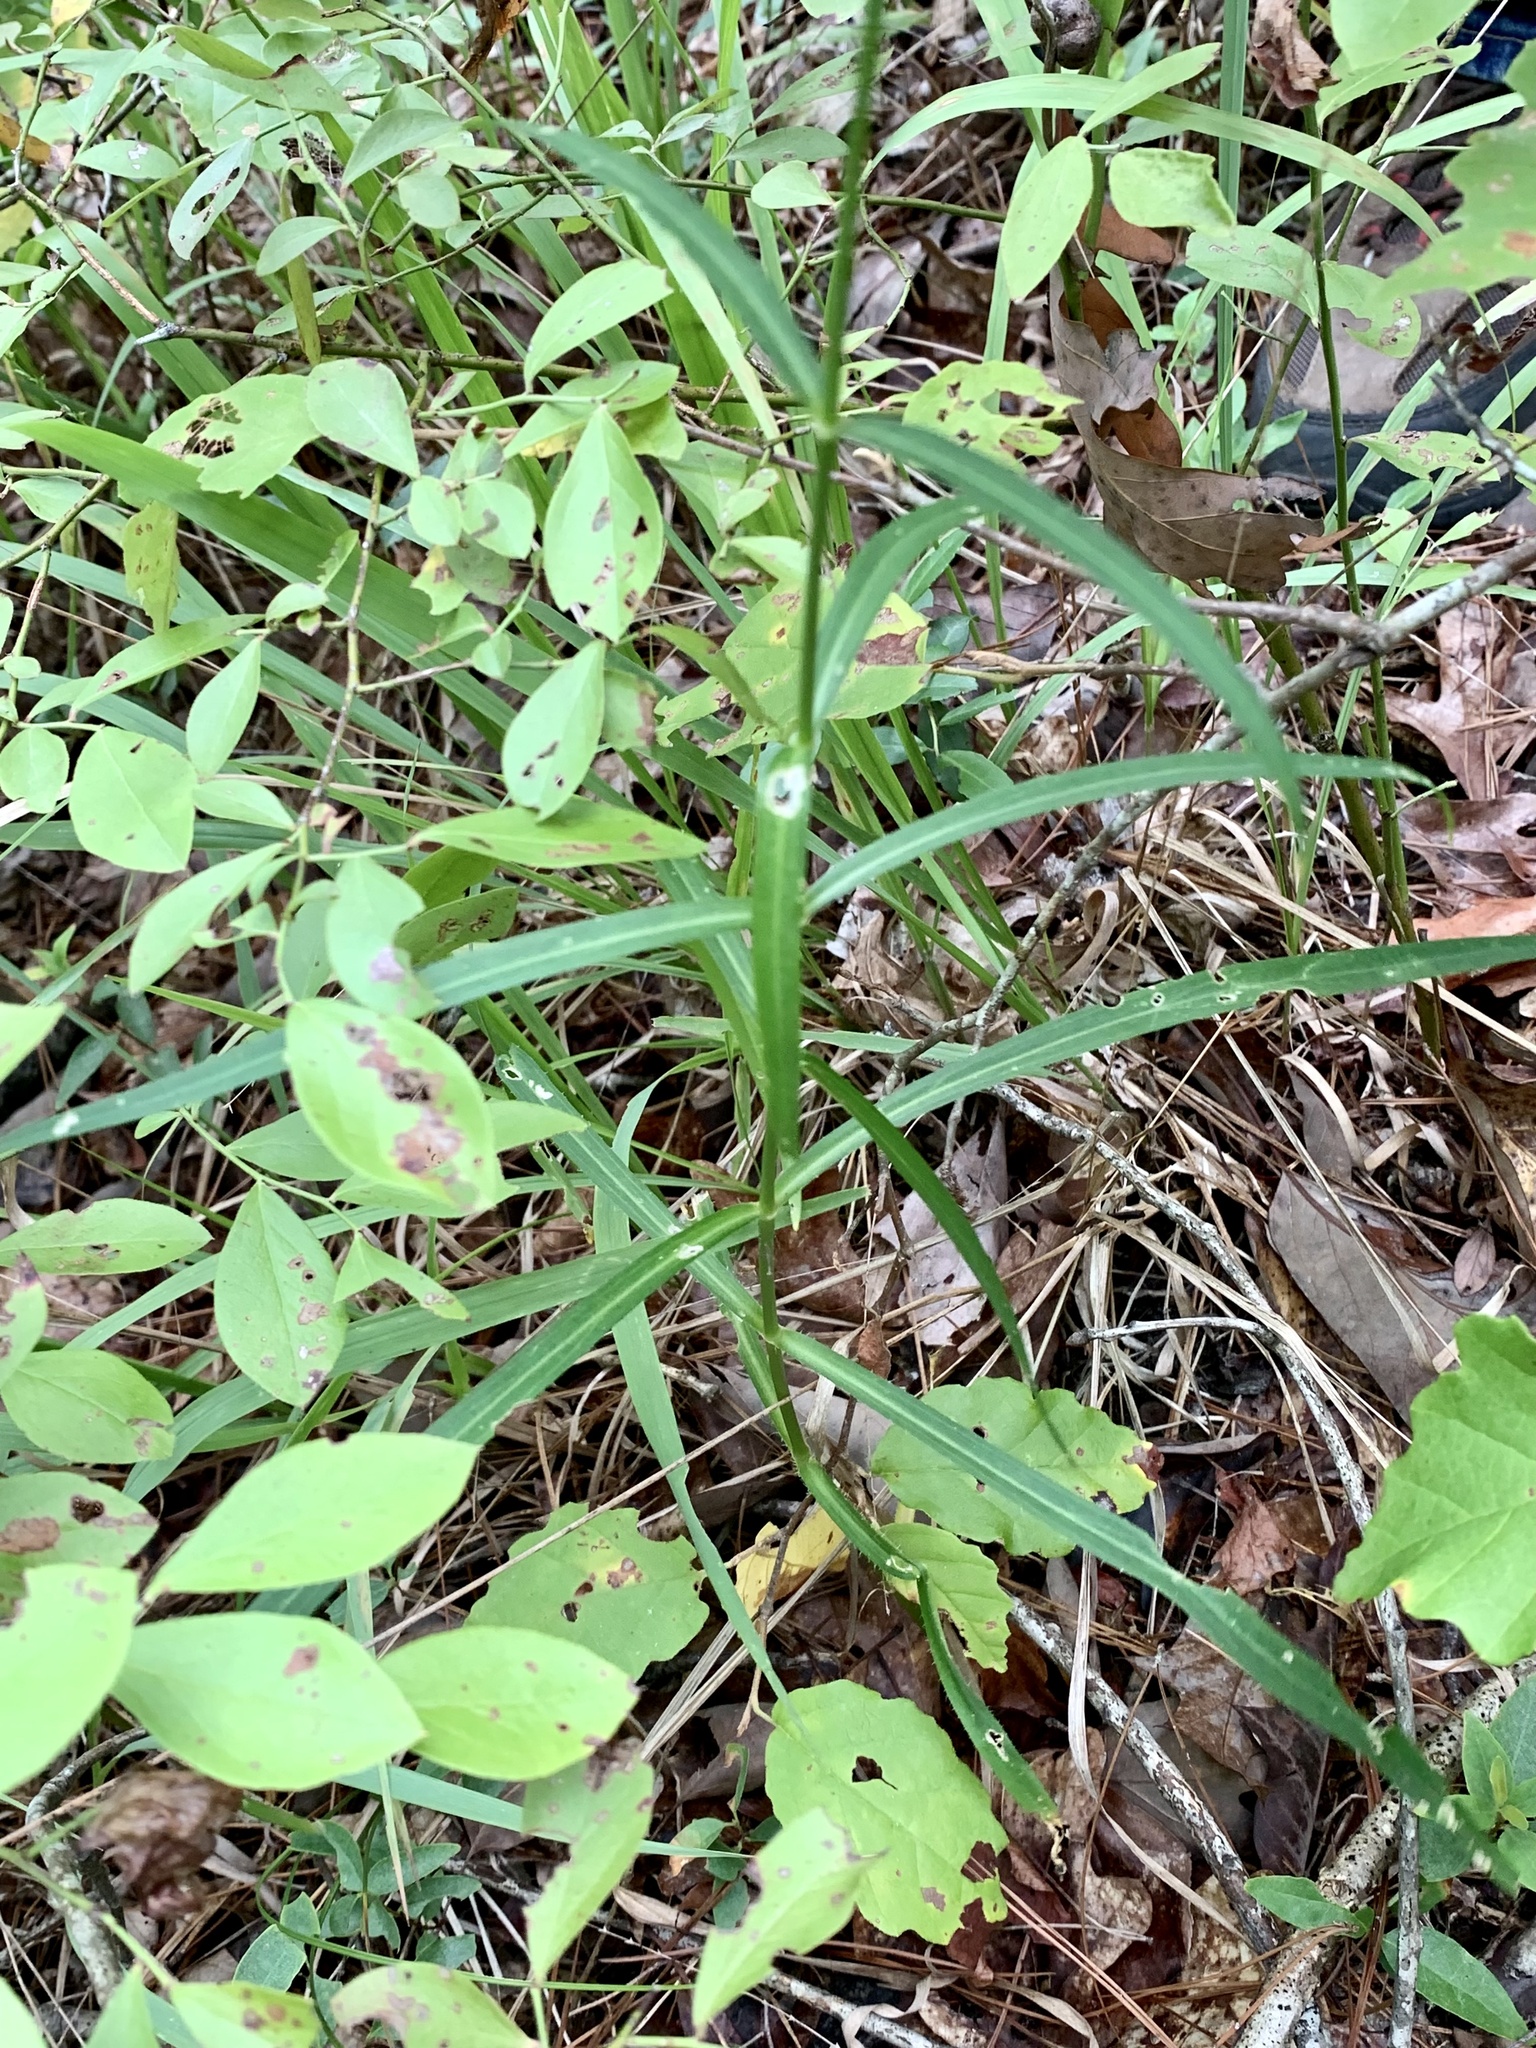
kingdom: Plantae
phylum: Tracheophyta
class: Magnoliopsida
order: Caryophyllales
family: Caryophyllaceae
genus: Silene
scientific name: Silene subciliata
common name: Prairie fire-pink
